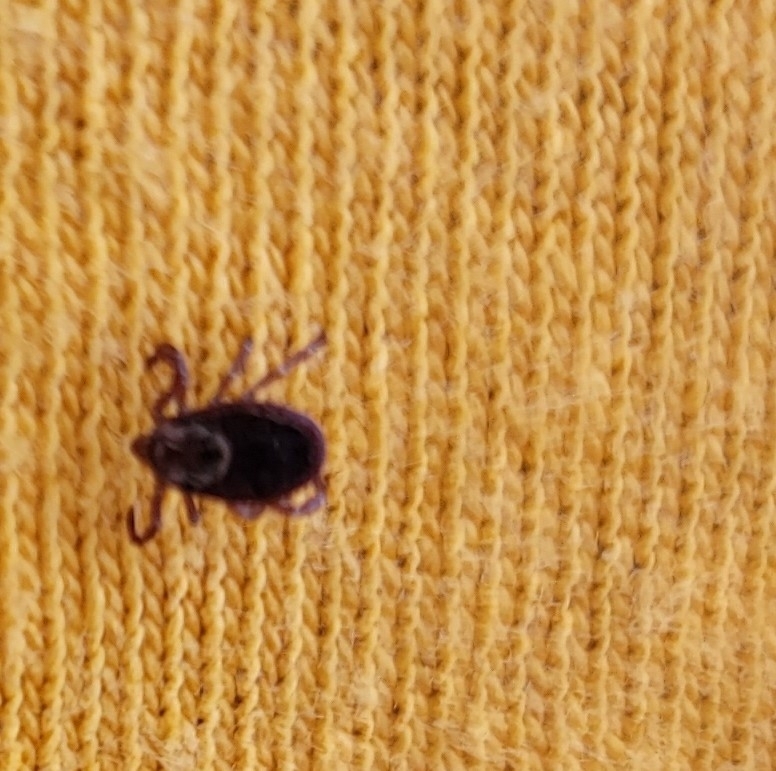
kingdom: Animalia
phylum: Arthropoda
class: Arachnida
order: Ixodida
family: Ixodidae
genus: Dermacentor
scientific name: Dermacentor variabilis
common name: American dog tick
